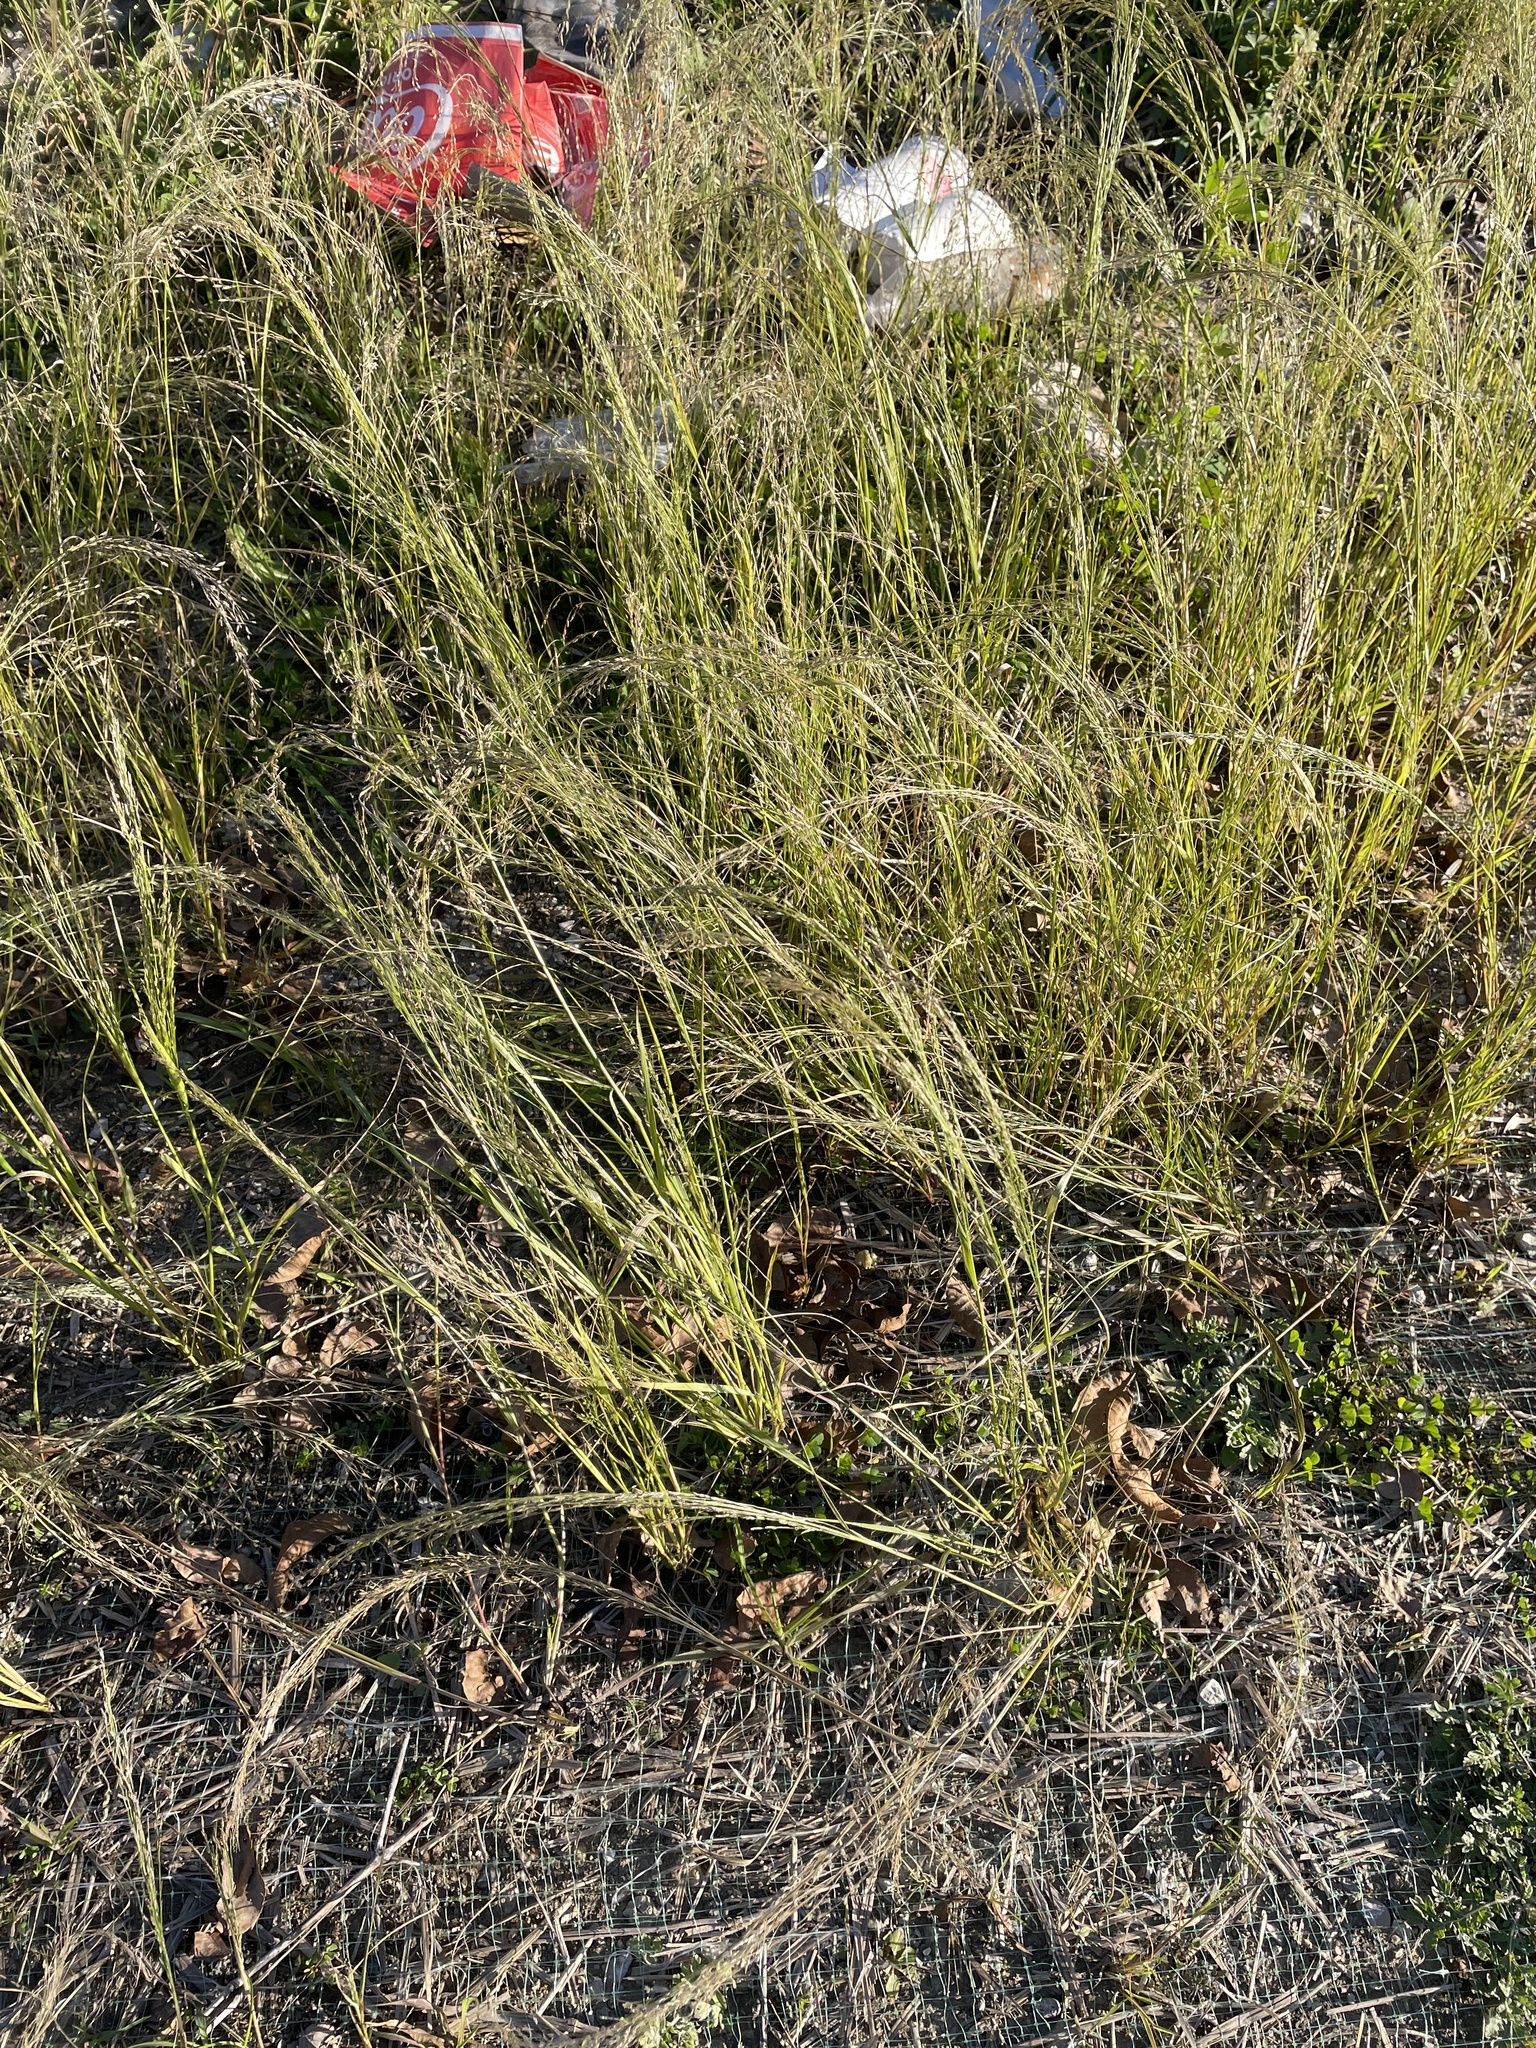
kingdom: Plantae
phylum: Tracheophyta
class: Liliopsida
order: Poales
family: Poaceae
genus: Eragrostis
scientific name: Eragrostis curvula
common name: African love-grass
